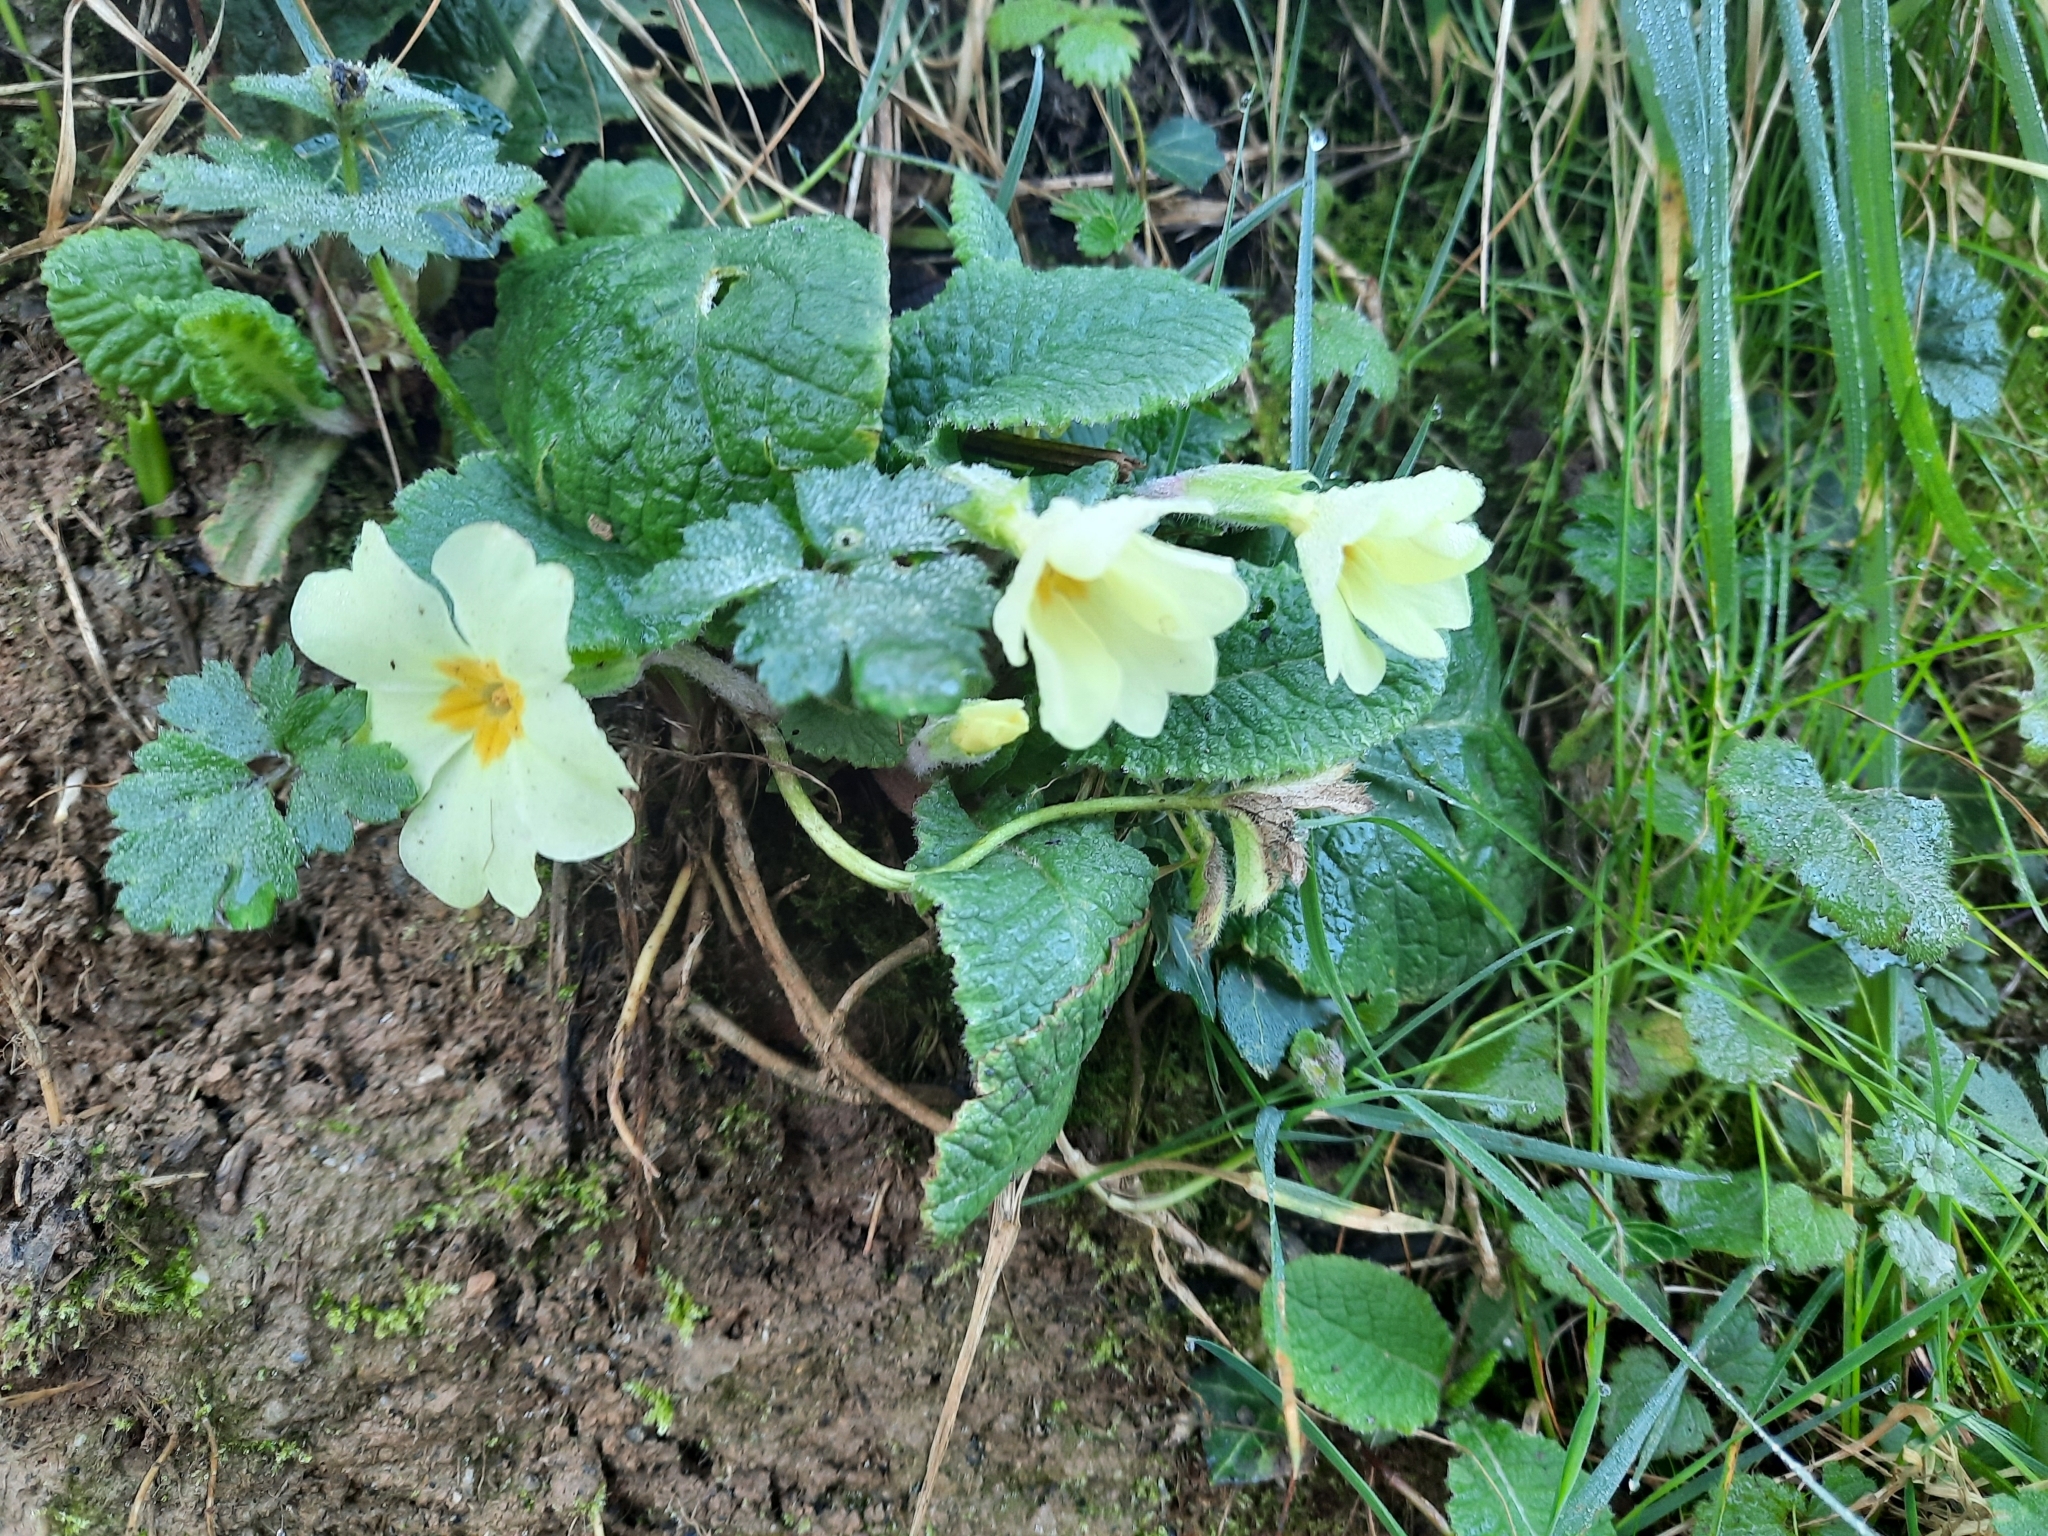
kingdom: Plantae
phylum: Tracheophyta
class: Magnoliopsida
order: Ericales
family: Primulaceae
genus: Primula
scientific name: Primula vulgaris
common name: Primrose
